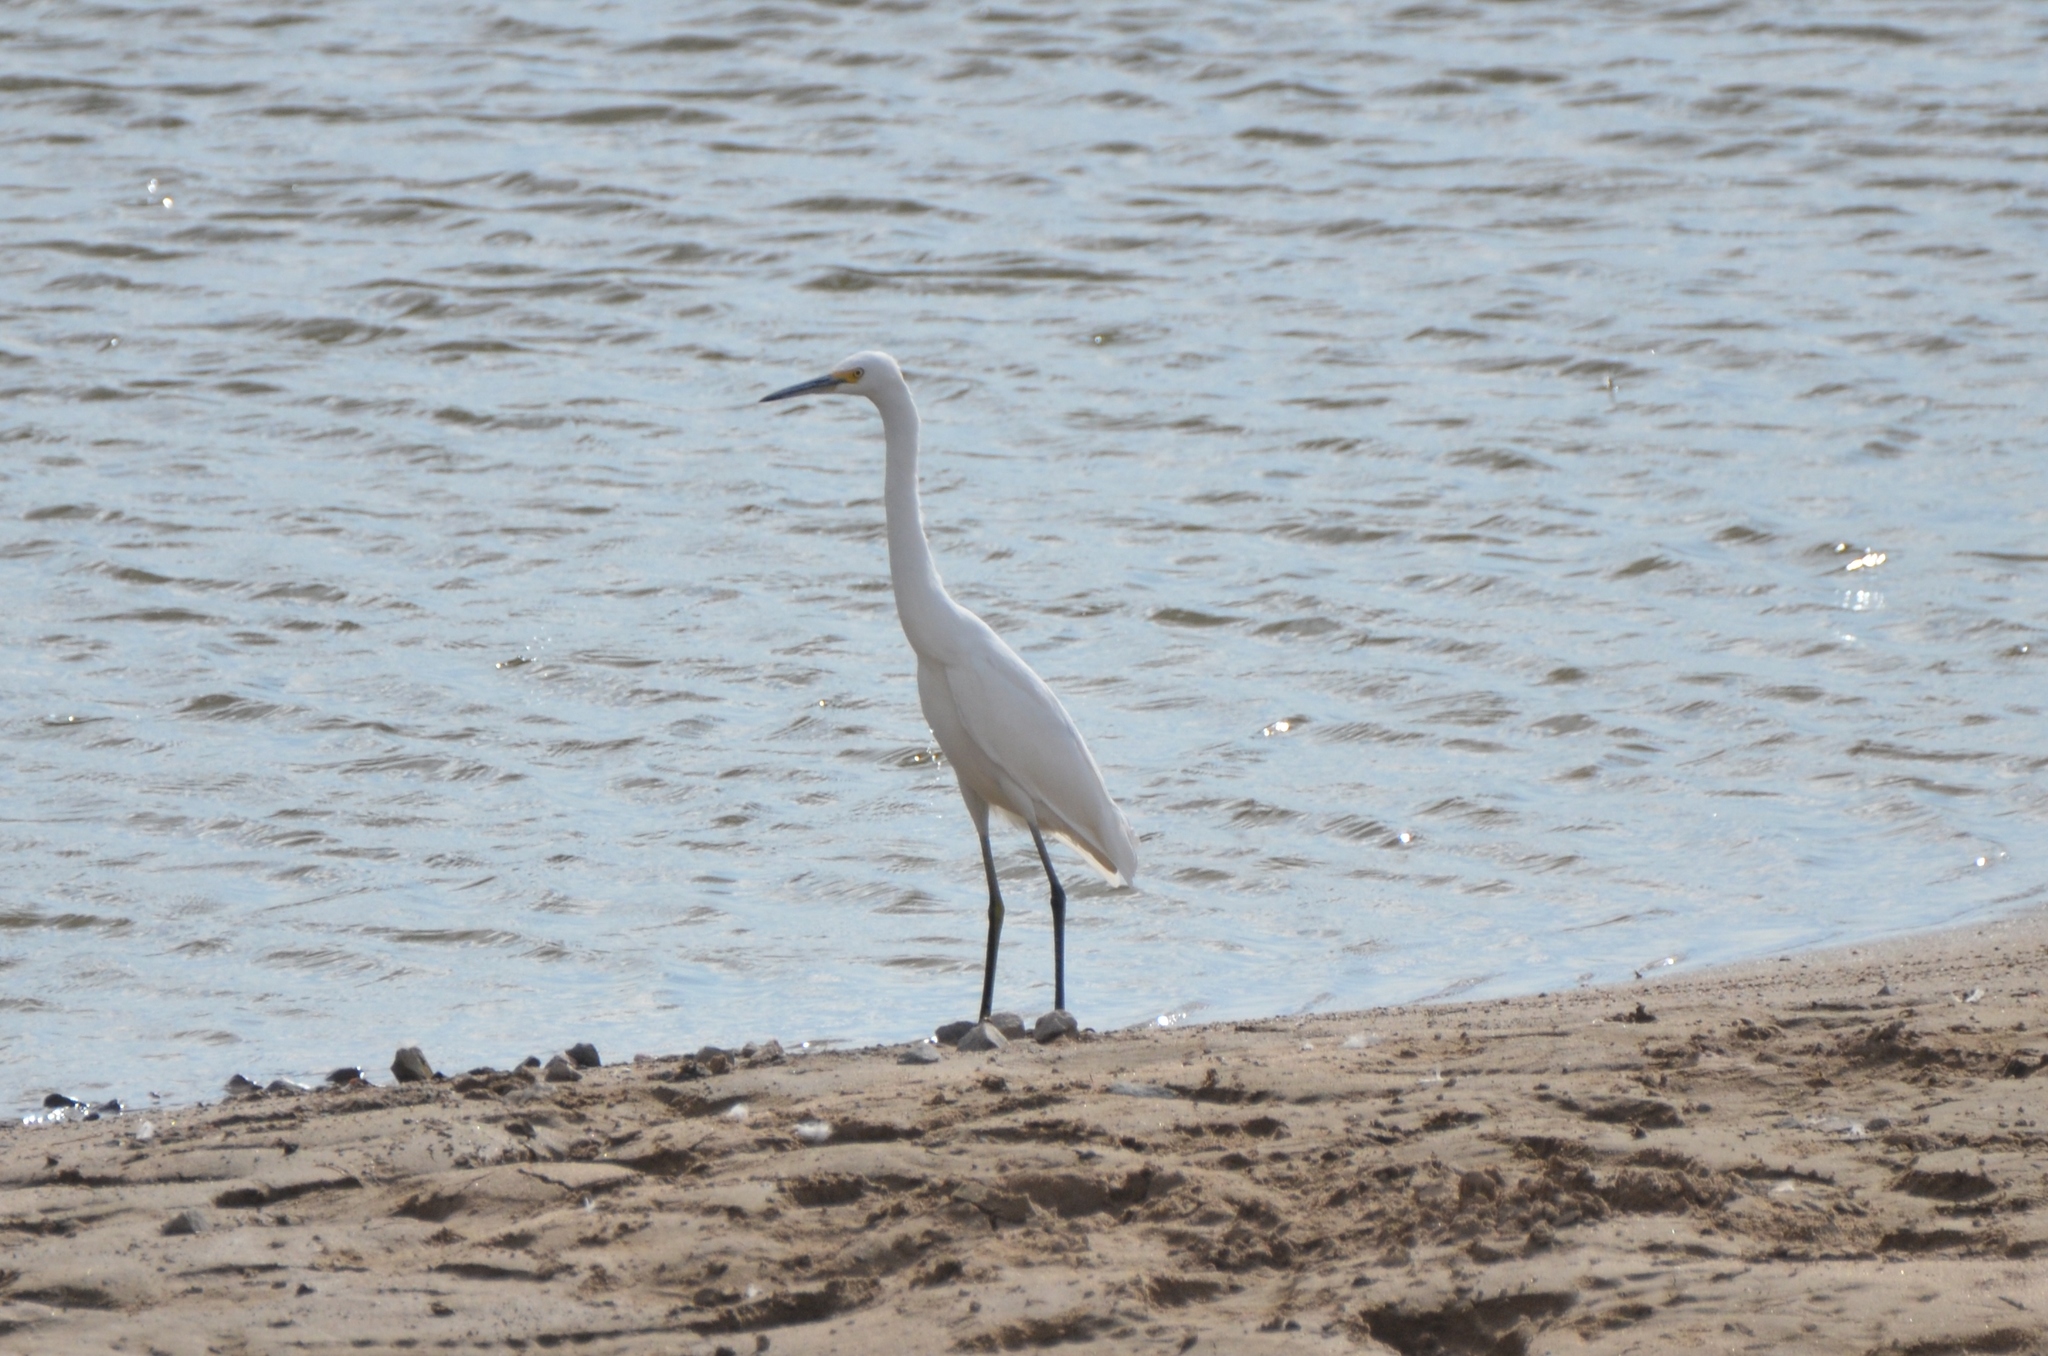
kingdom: Animalia
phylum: Chordata
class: Aves
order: Pelecaniformes
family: Ardeidae
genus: Egretta
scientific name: Egretta thula
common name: Snowy egret
